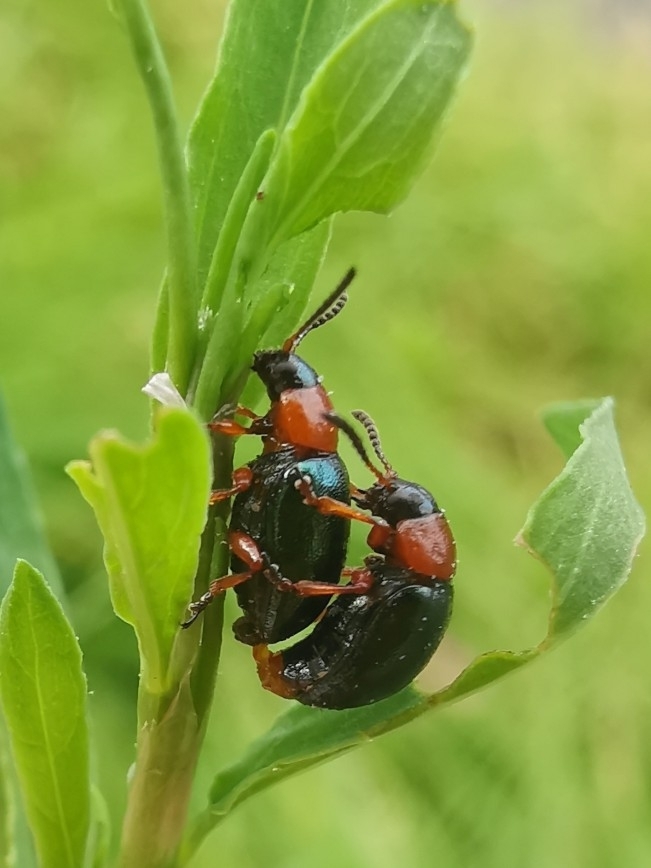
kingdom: Animalia
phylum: Arthropoda
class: Insecta
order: Coleoptera
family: Chrysomelidae
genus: Gastrophysa
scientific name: Gastrophysa polygoni
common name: Knotweed leaf beetle
